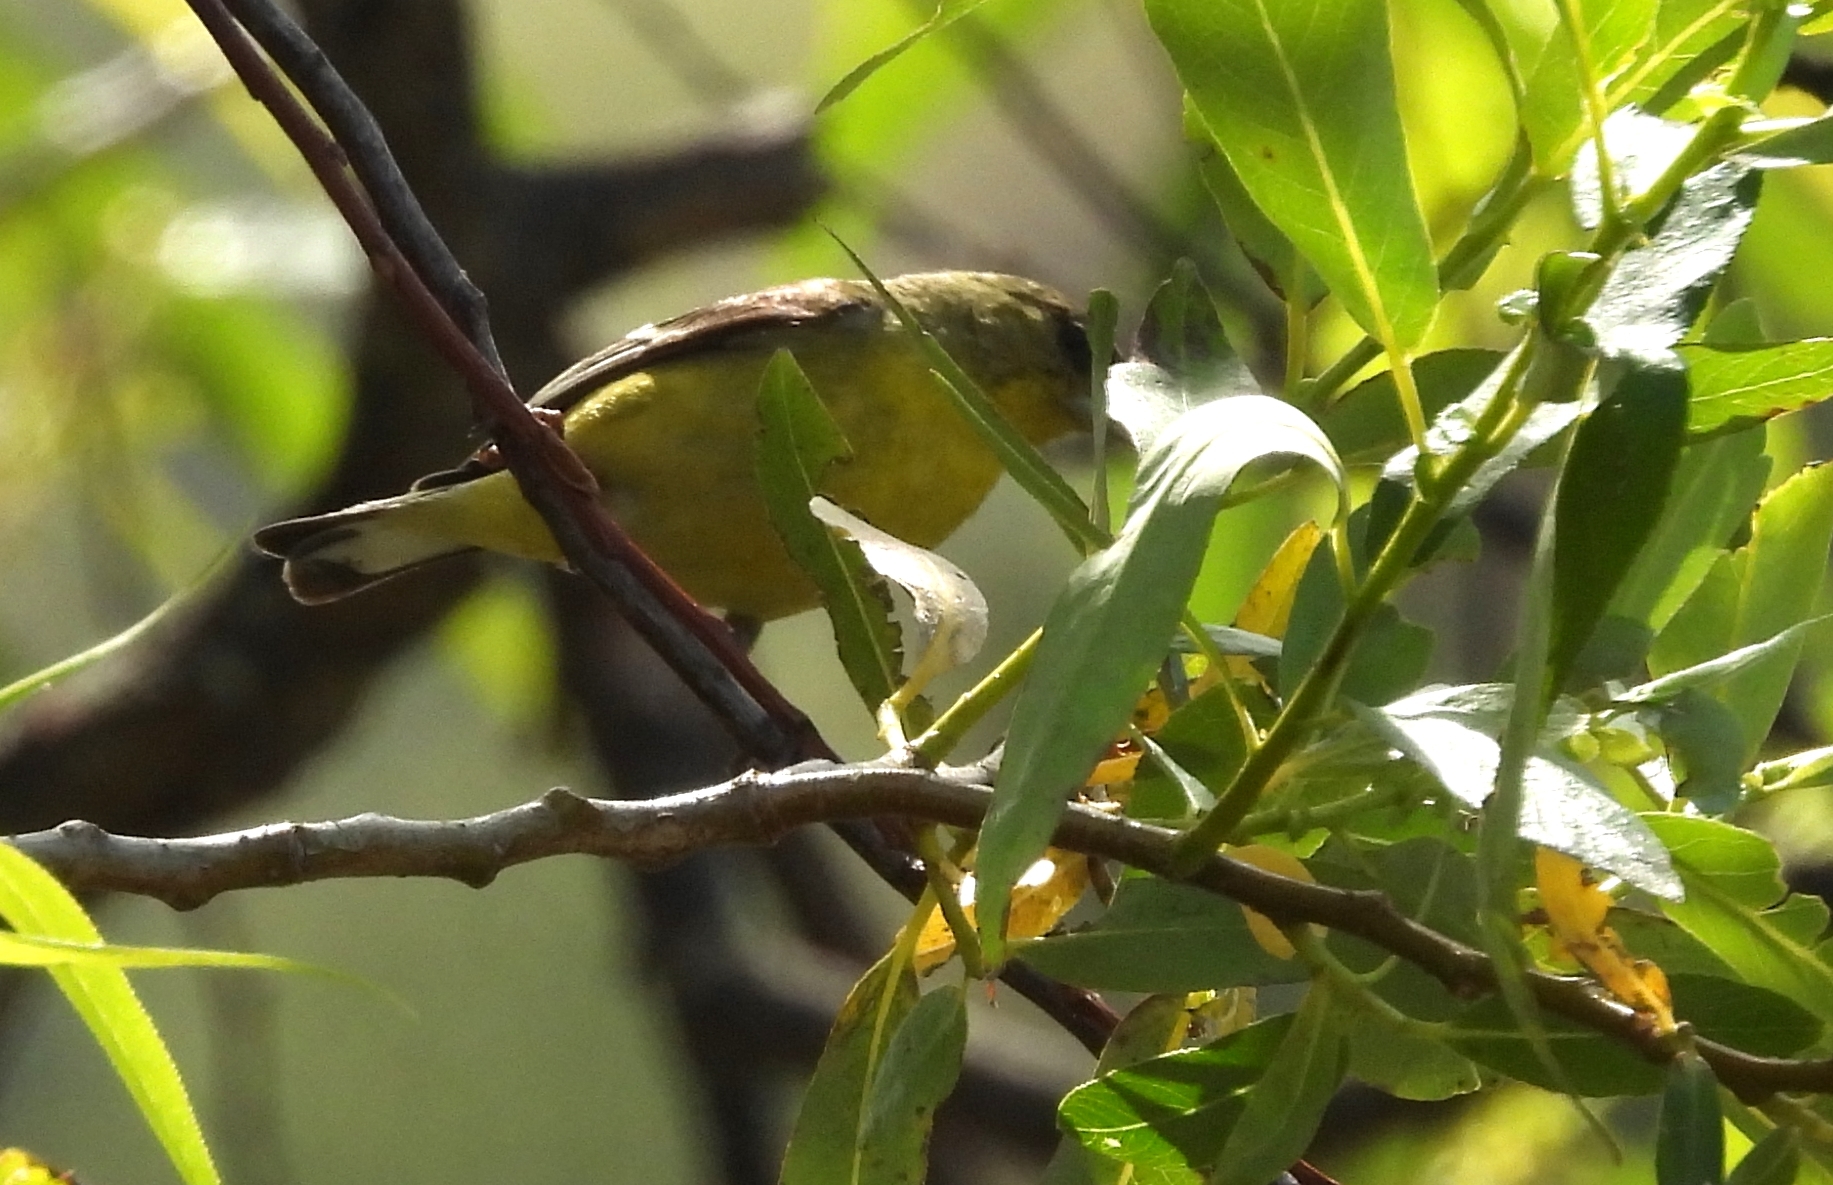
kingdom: Animalia
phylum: Chordata
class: Aves
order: Passeriformes
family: Fringillidae
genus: Spinus
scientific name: Spinus psaltria
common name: Lesser goldfinch
